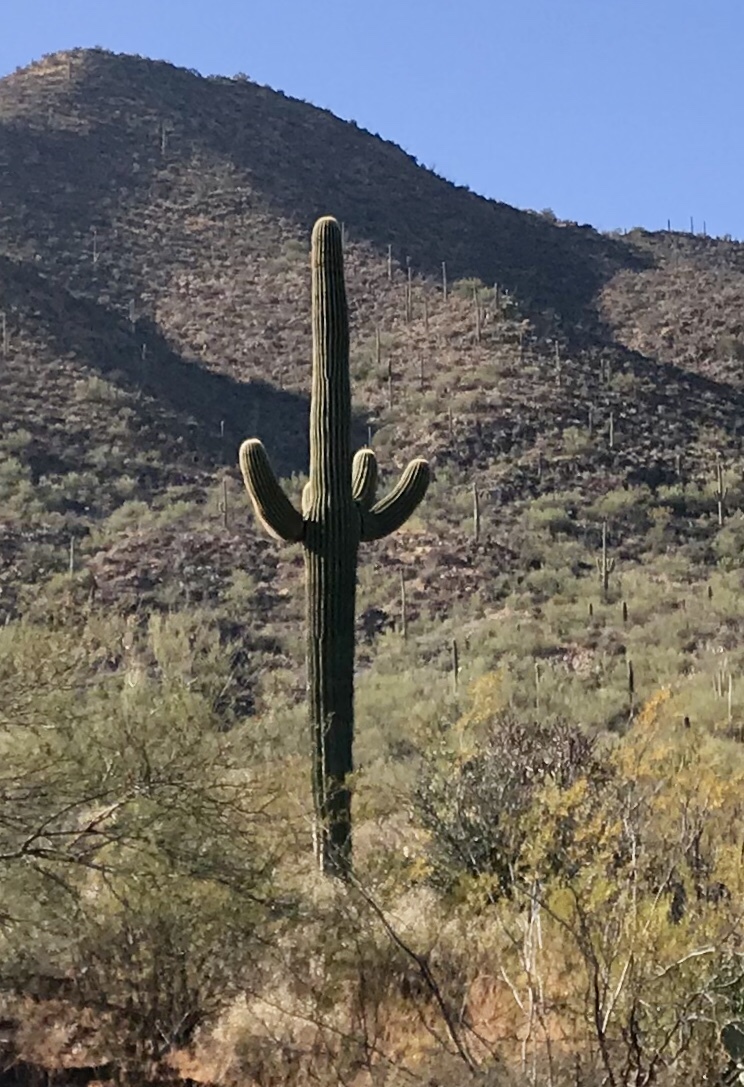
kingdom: Plantae
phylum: Tracheophyta
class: Magnoliopsida
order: Caryophyllales
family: Cactaceae
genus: Carnegiea
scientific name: Carnegiea gigantea
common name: Saguaro
